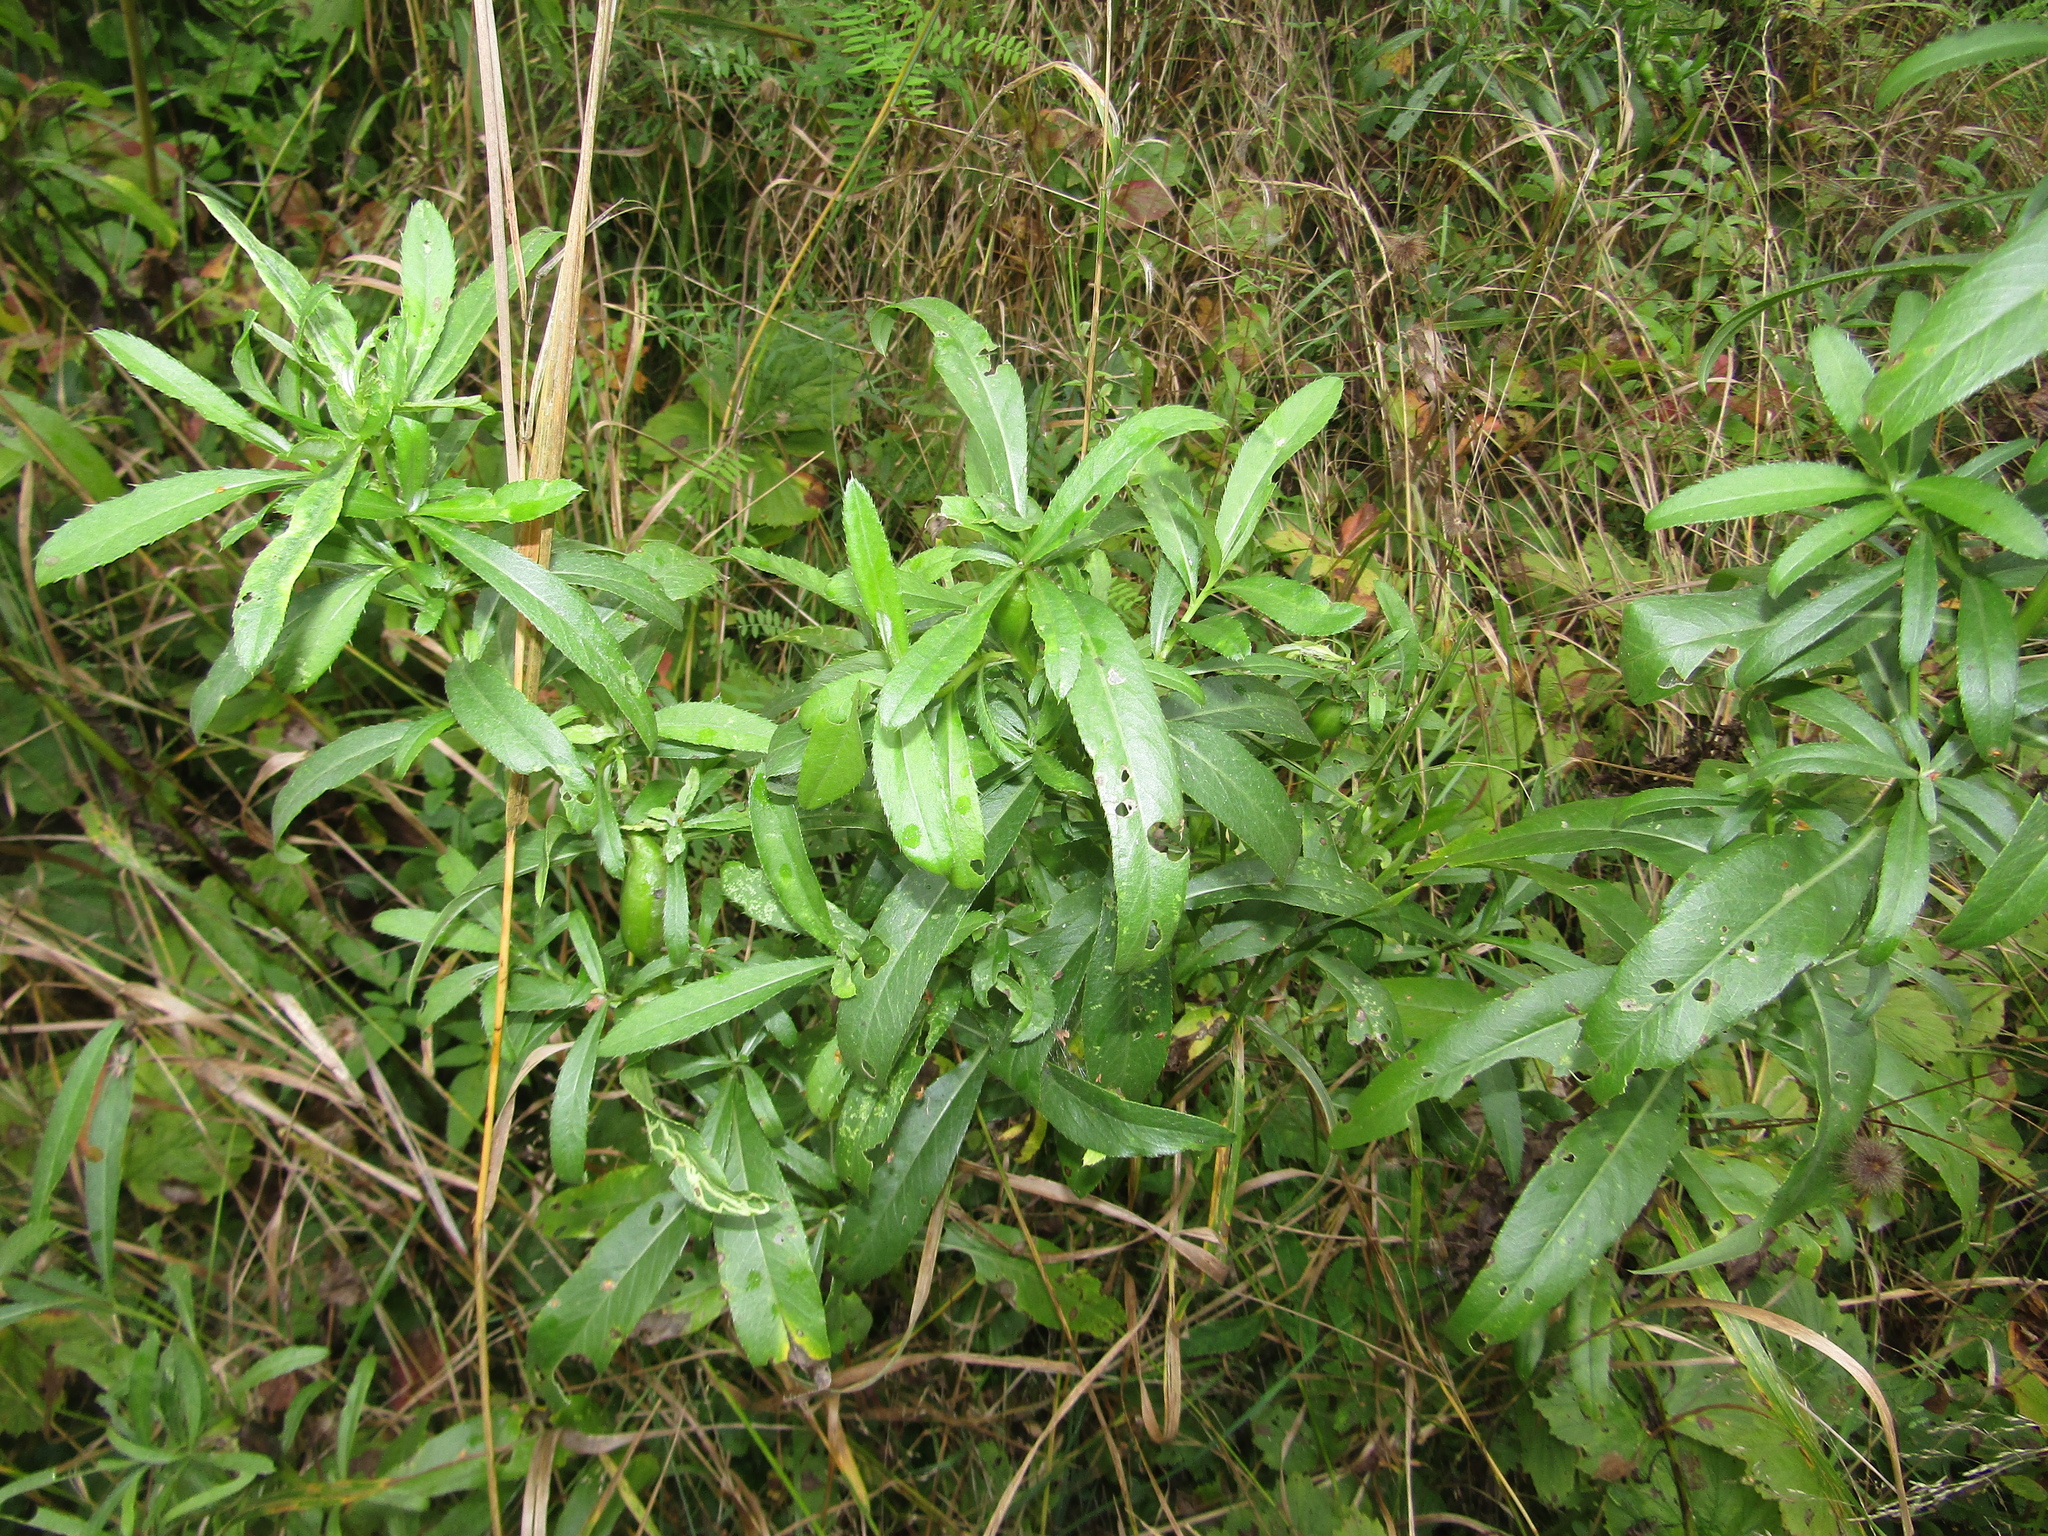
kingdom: Plantae
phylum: Tracheophyta
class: Magnoliopsida
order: Asterales
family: Asteraceae
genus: Cirsium
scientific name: Cirsium arvense
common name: Creeping thistle
